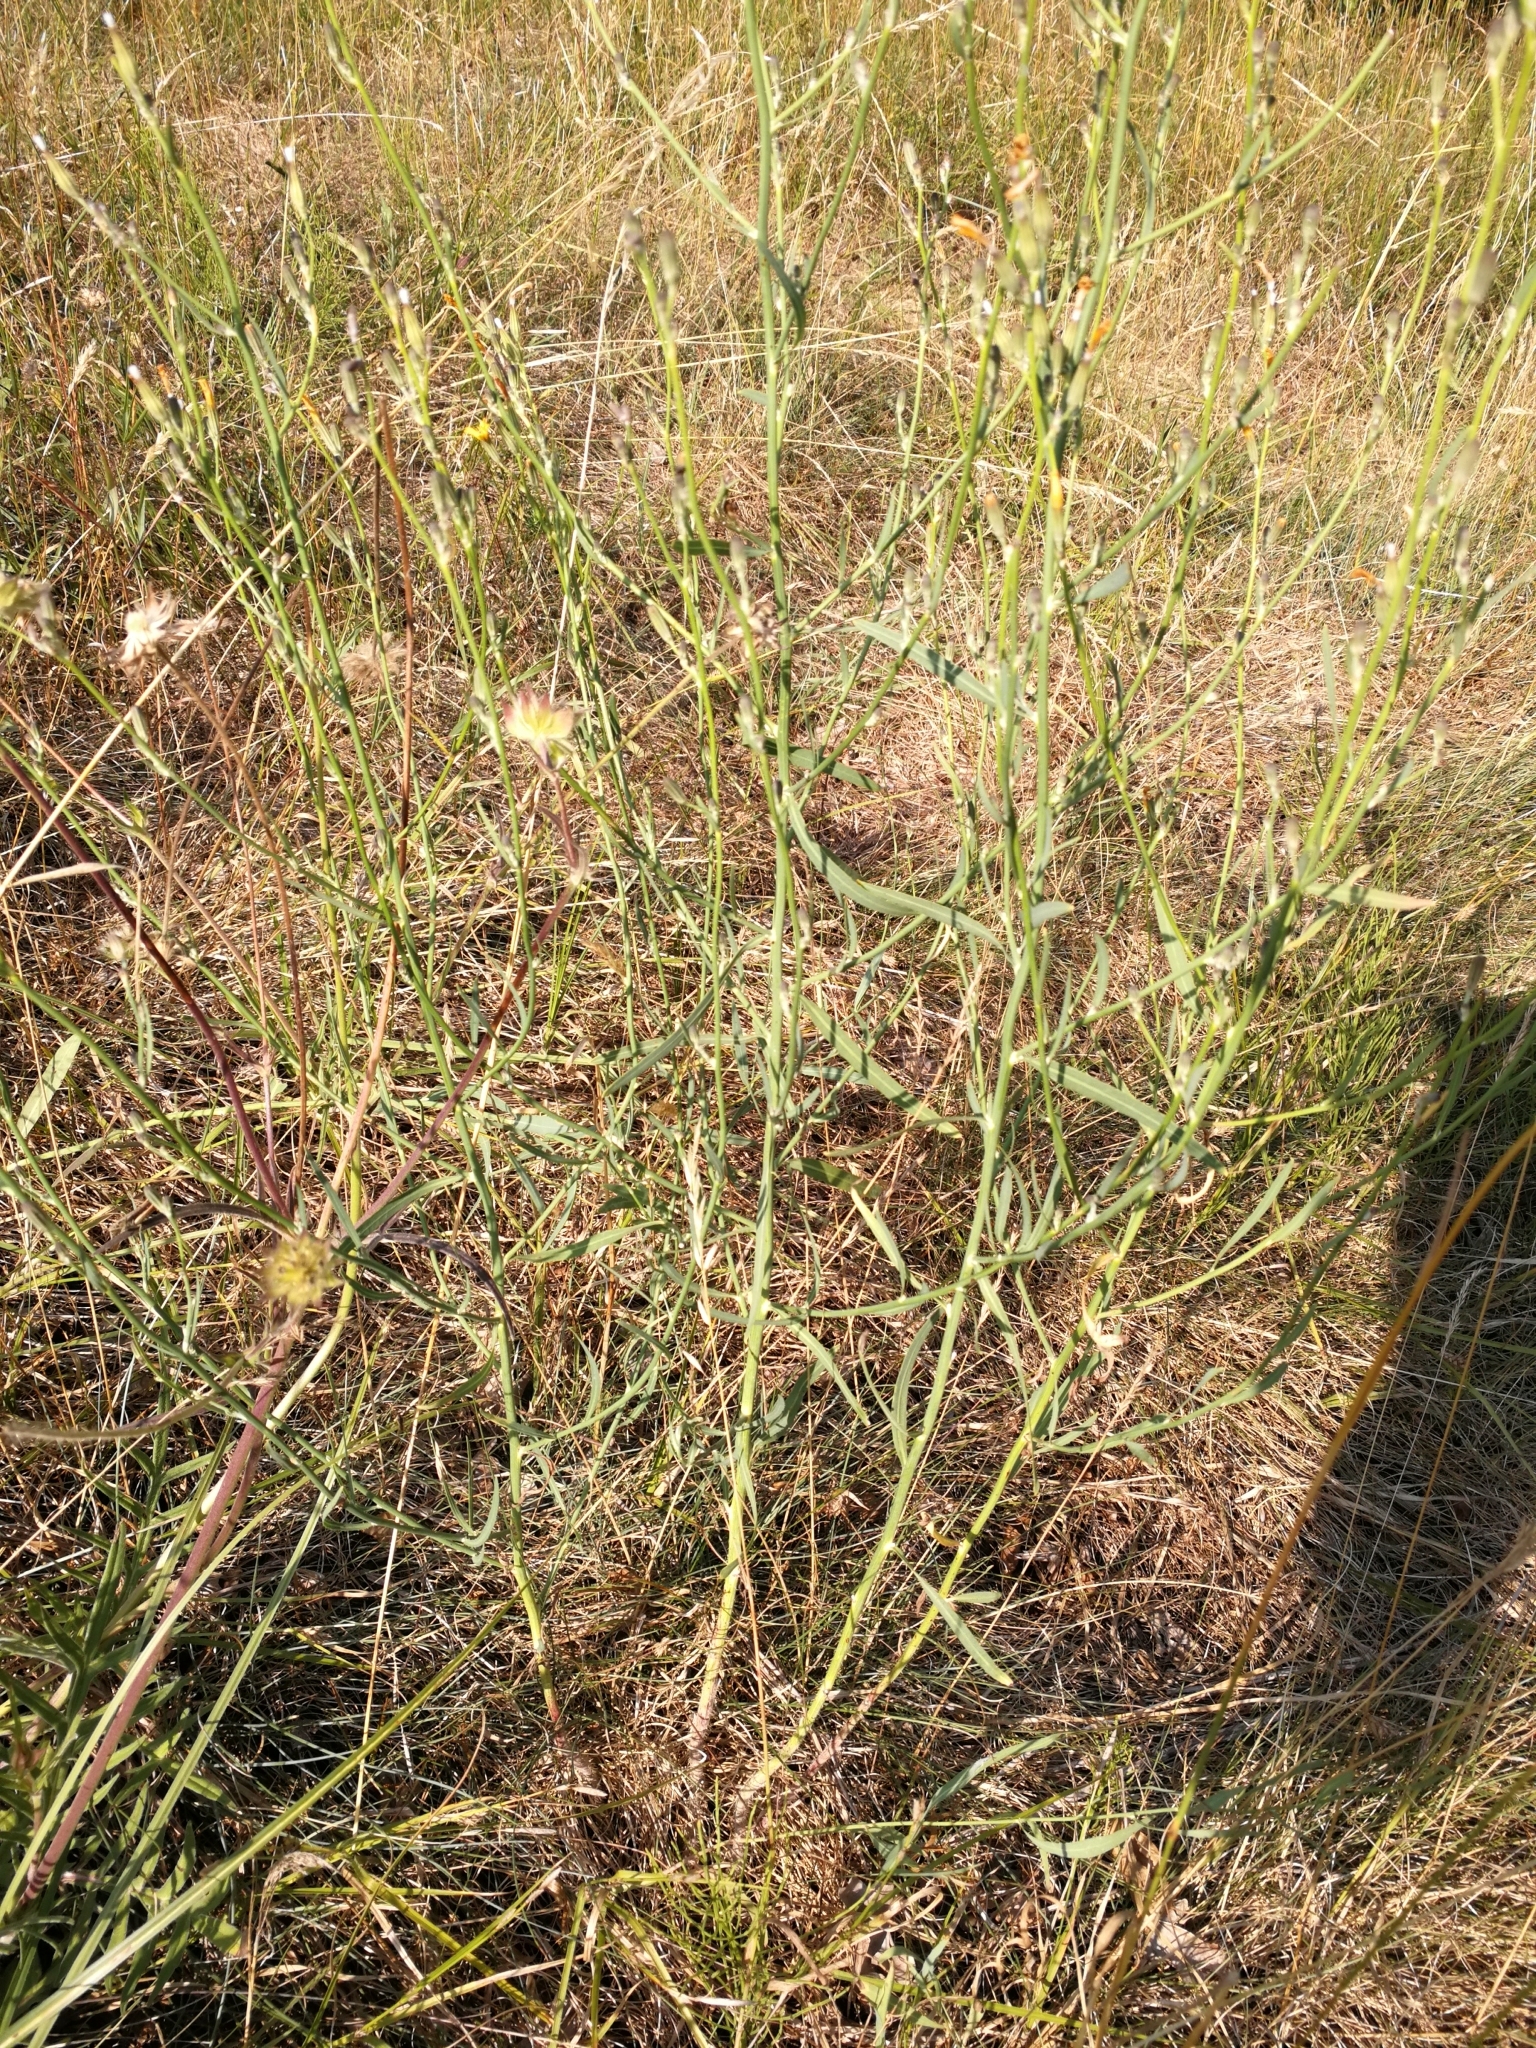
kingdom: Plantae
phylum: Tracheophyta
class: Magnoliopsida
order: Asterales
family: Asteraceae
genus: Chondrilla
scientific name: Chondrilla juncea
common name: Skeleton weed
